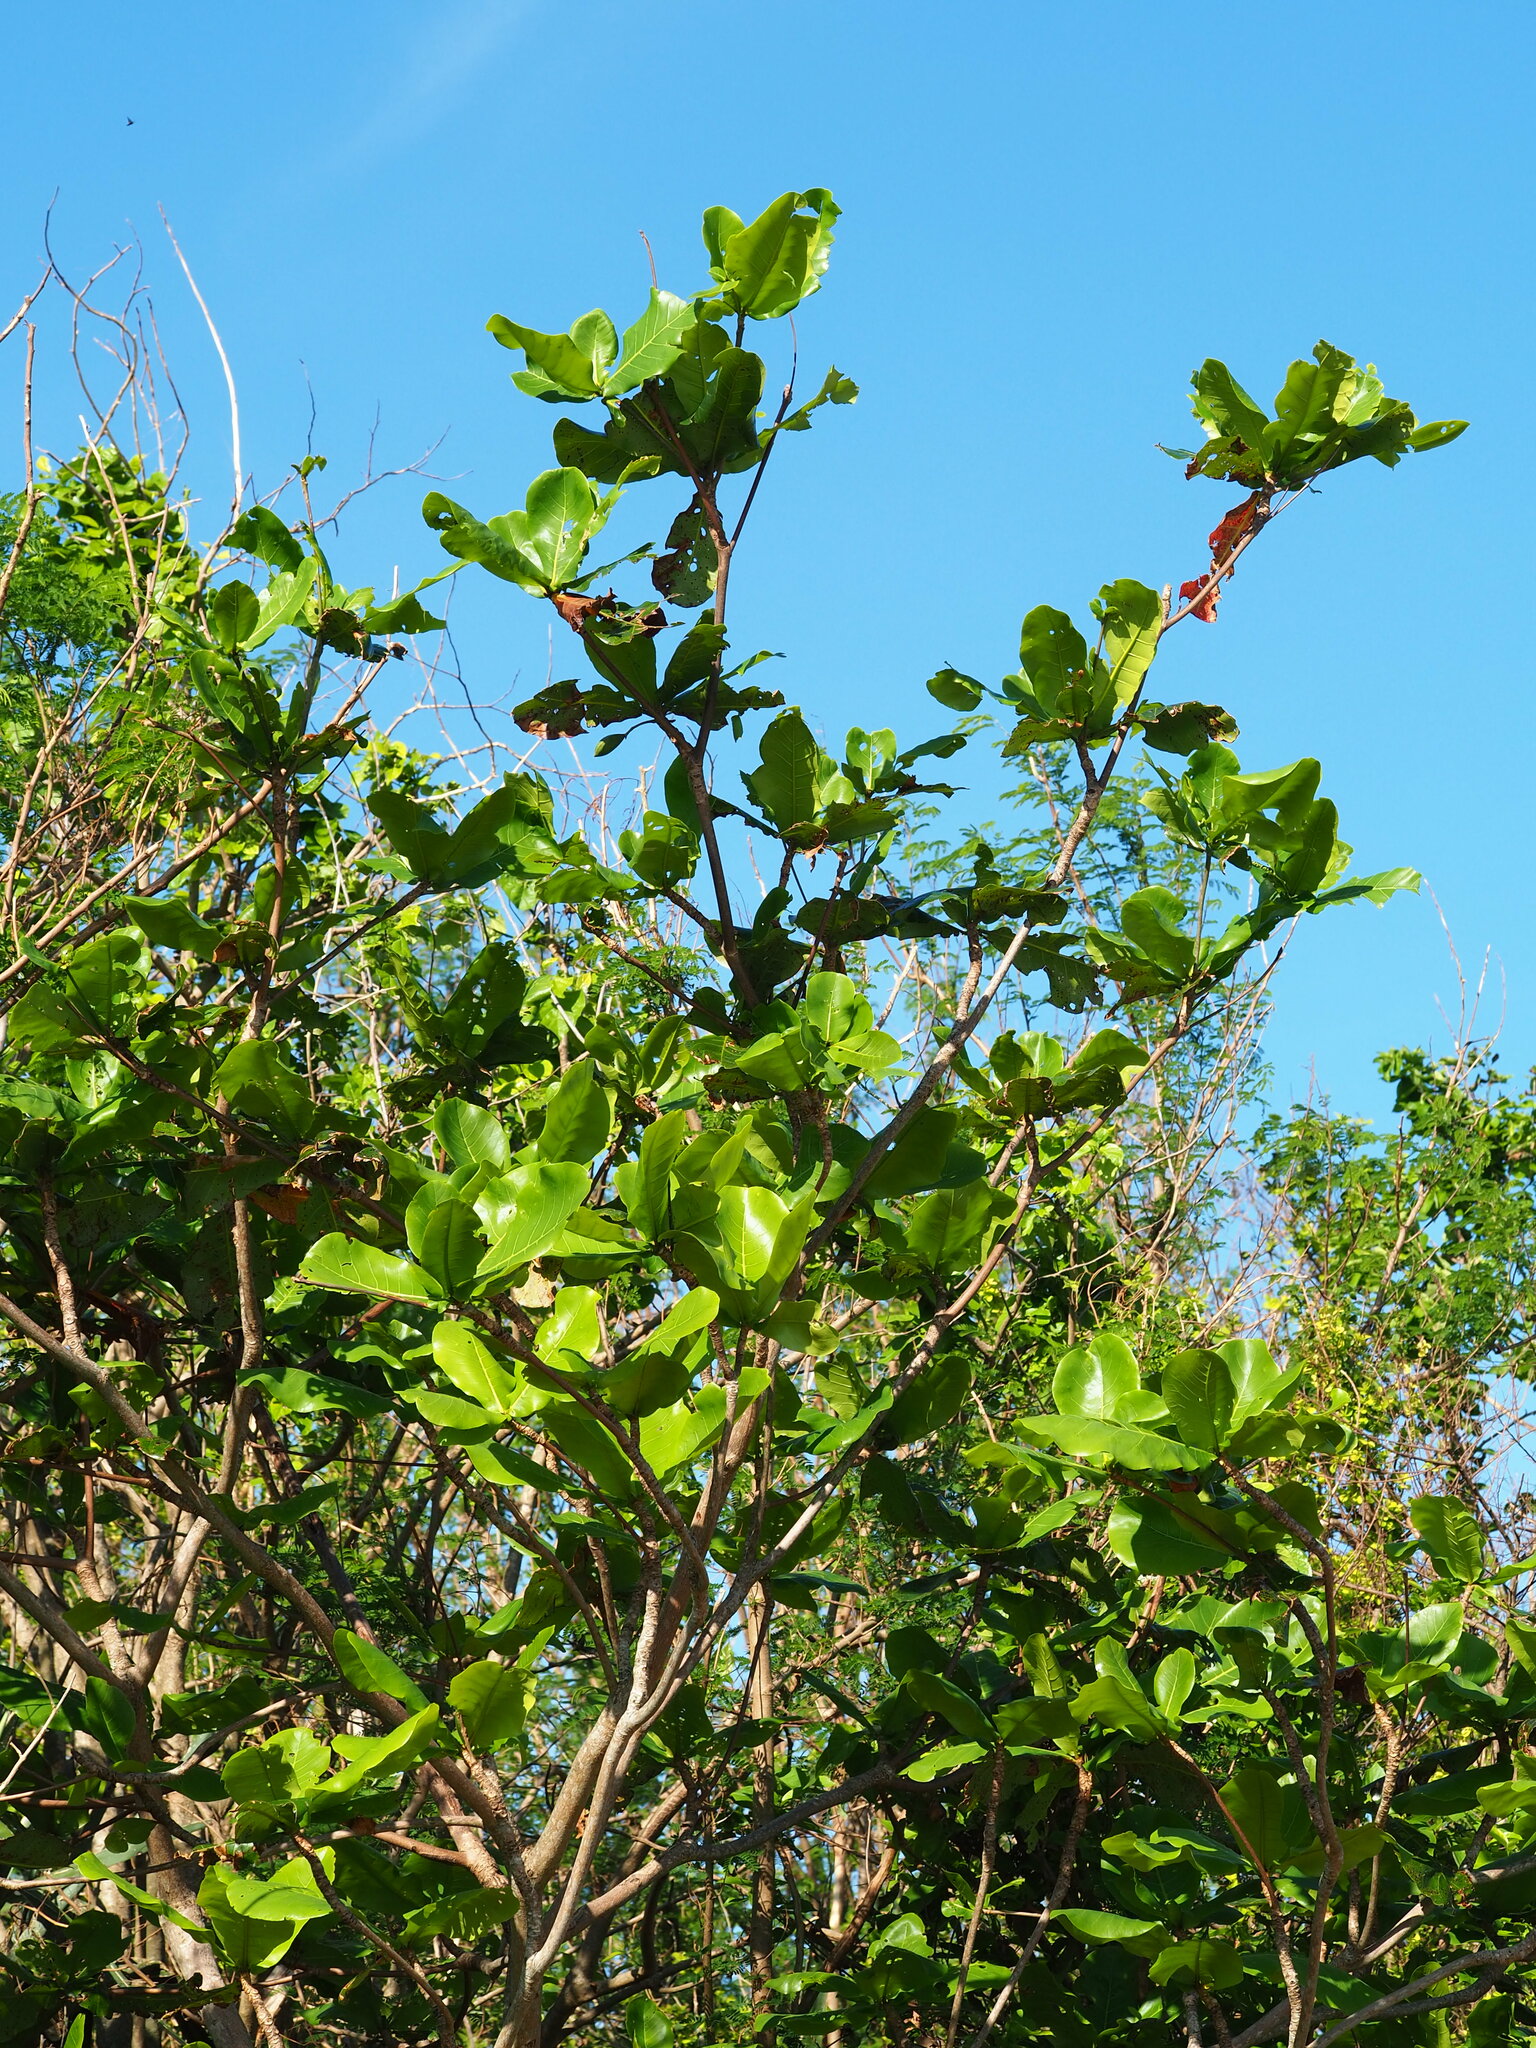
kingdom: Plantae
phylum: Tracheophyta
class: Magnoliopsida
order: Myrtales
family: Combretaceae
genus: Terminalia
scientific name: Terminalia catappa
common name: Tropical almond
